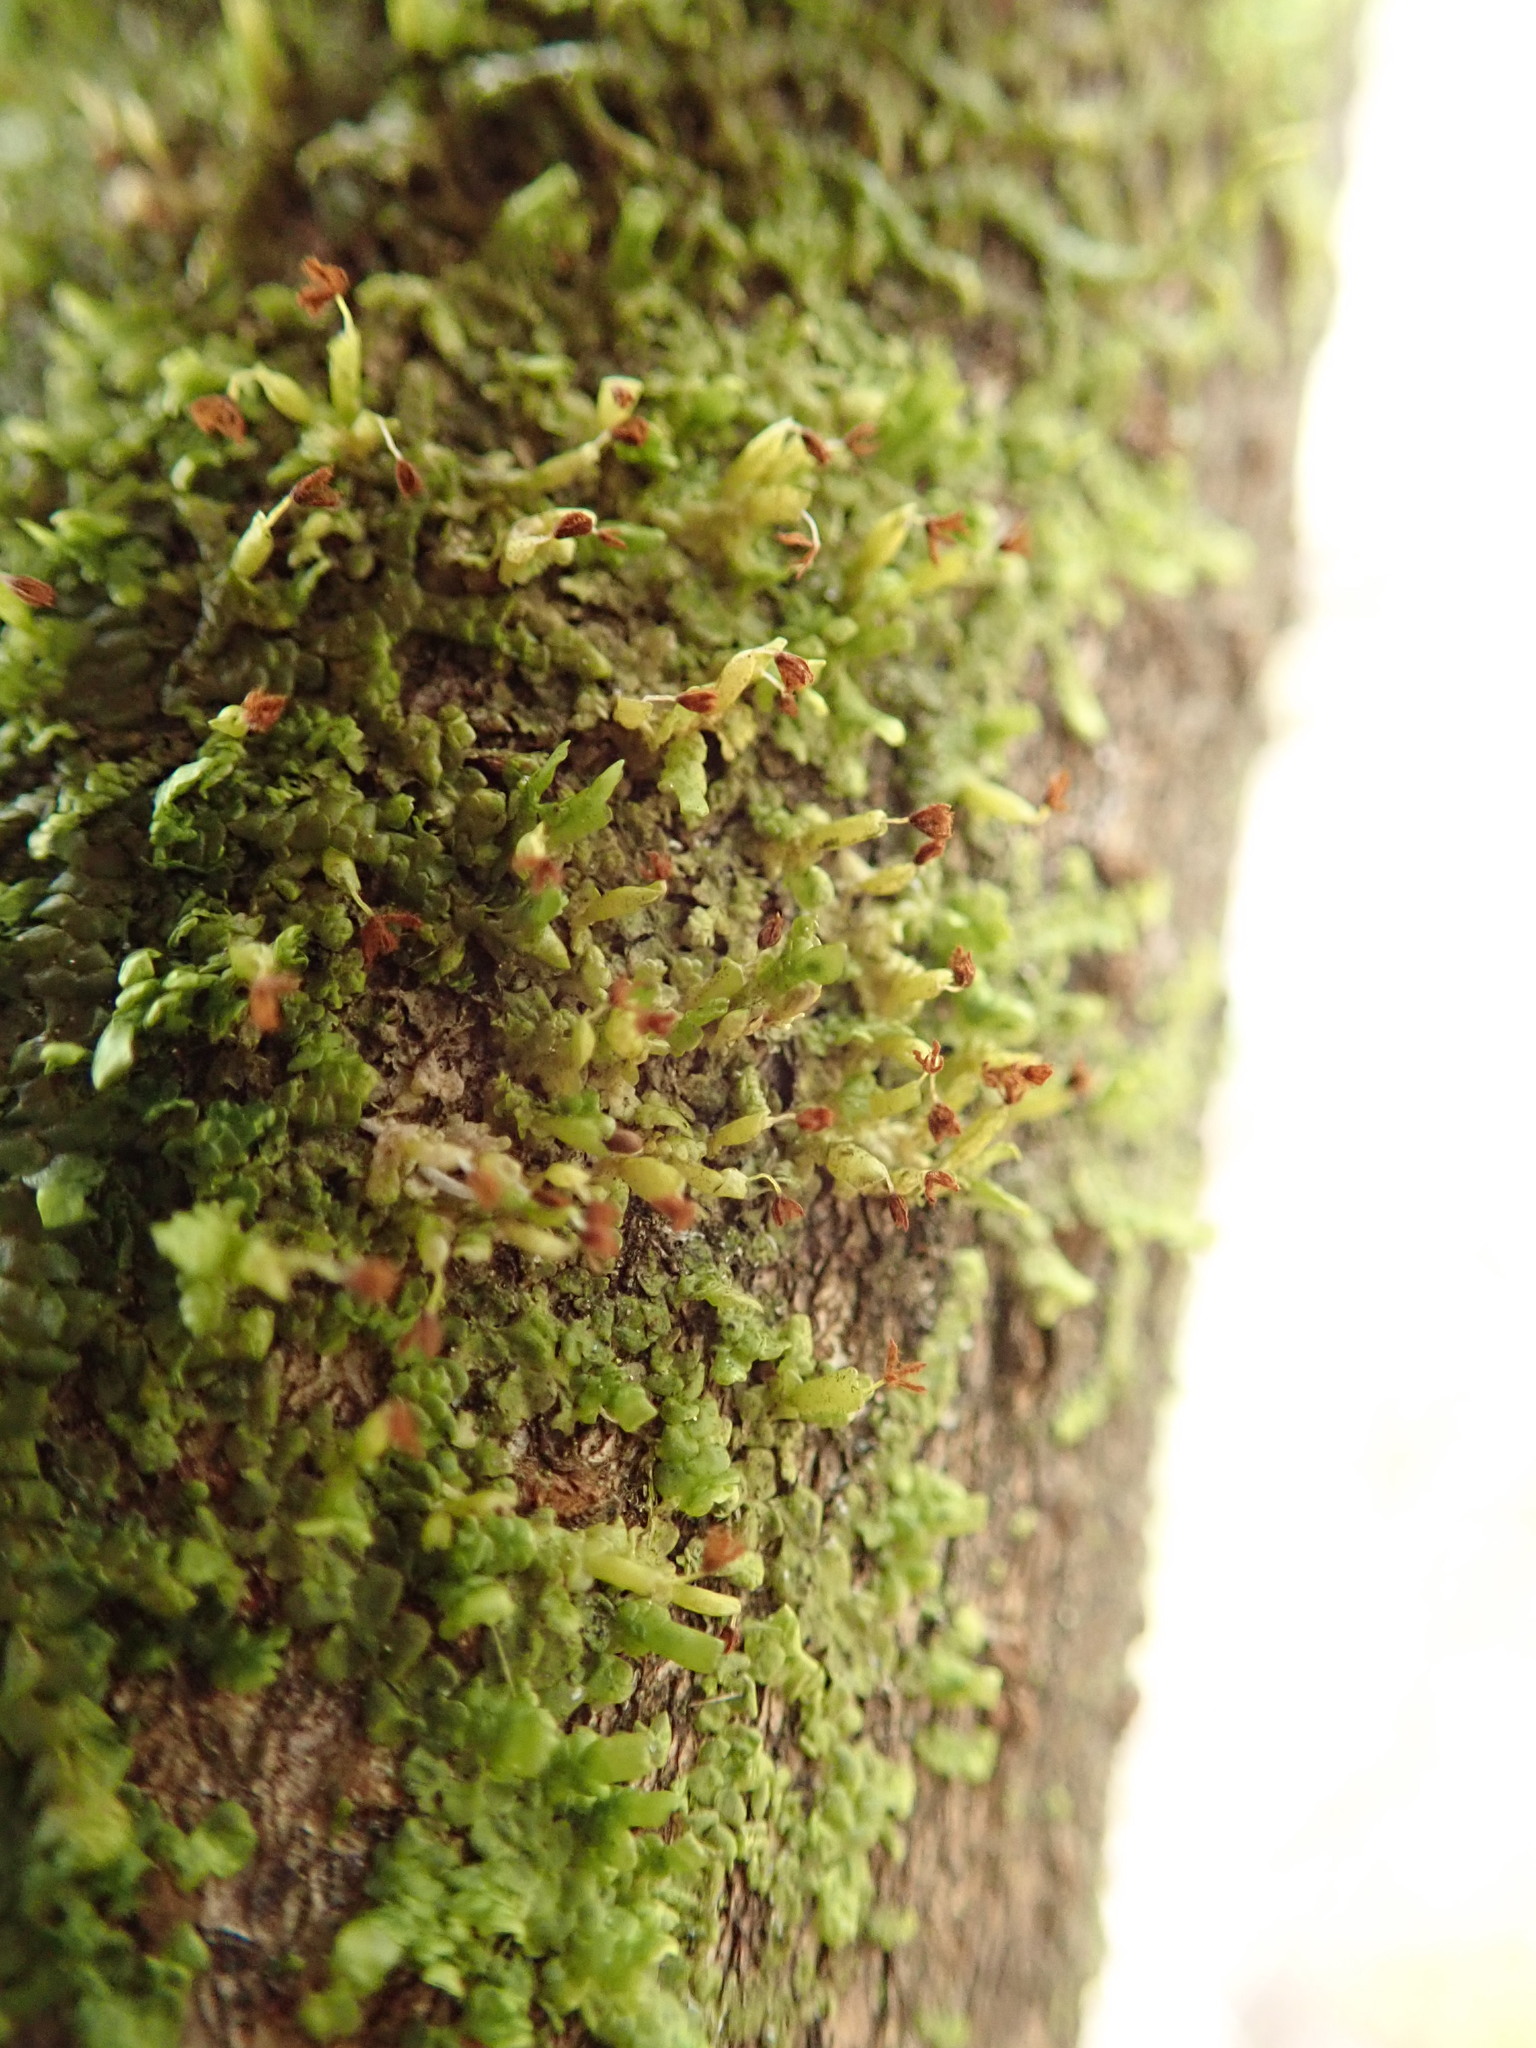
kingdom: Plantae
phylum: Marchantiophyta
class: Jungermanniopsida
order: Porellales
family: Radulaceae
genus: Radula
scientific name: Radula complanata
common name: Flat-leaved scalewort
